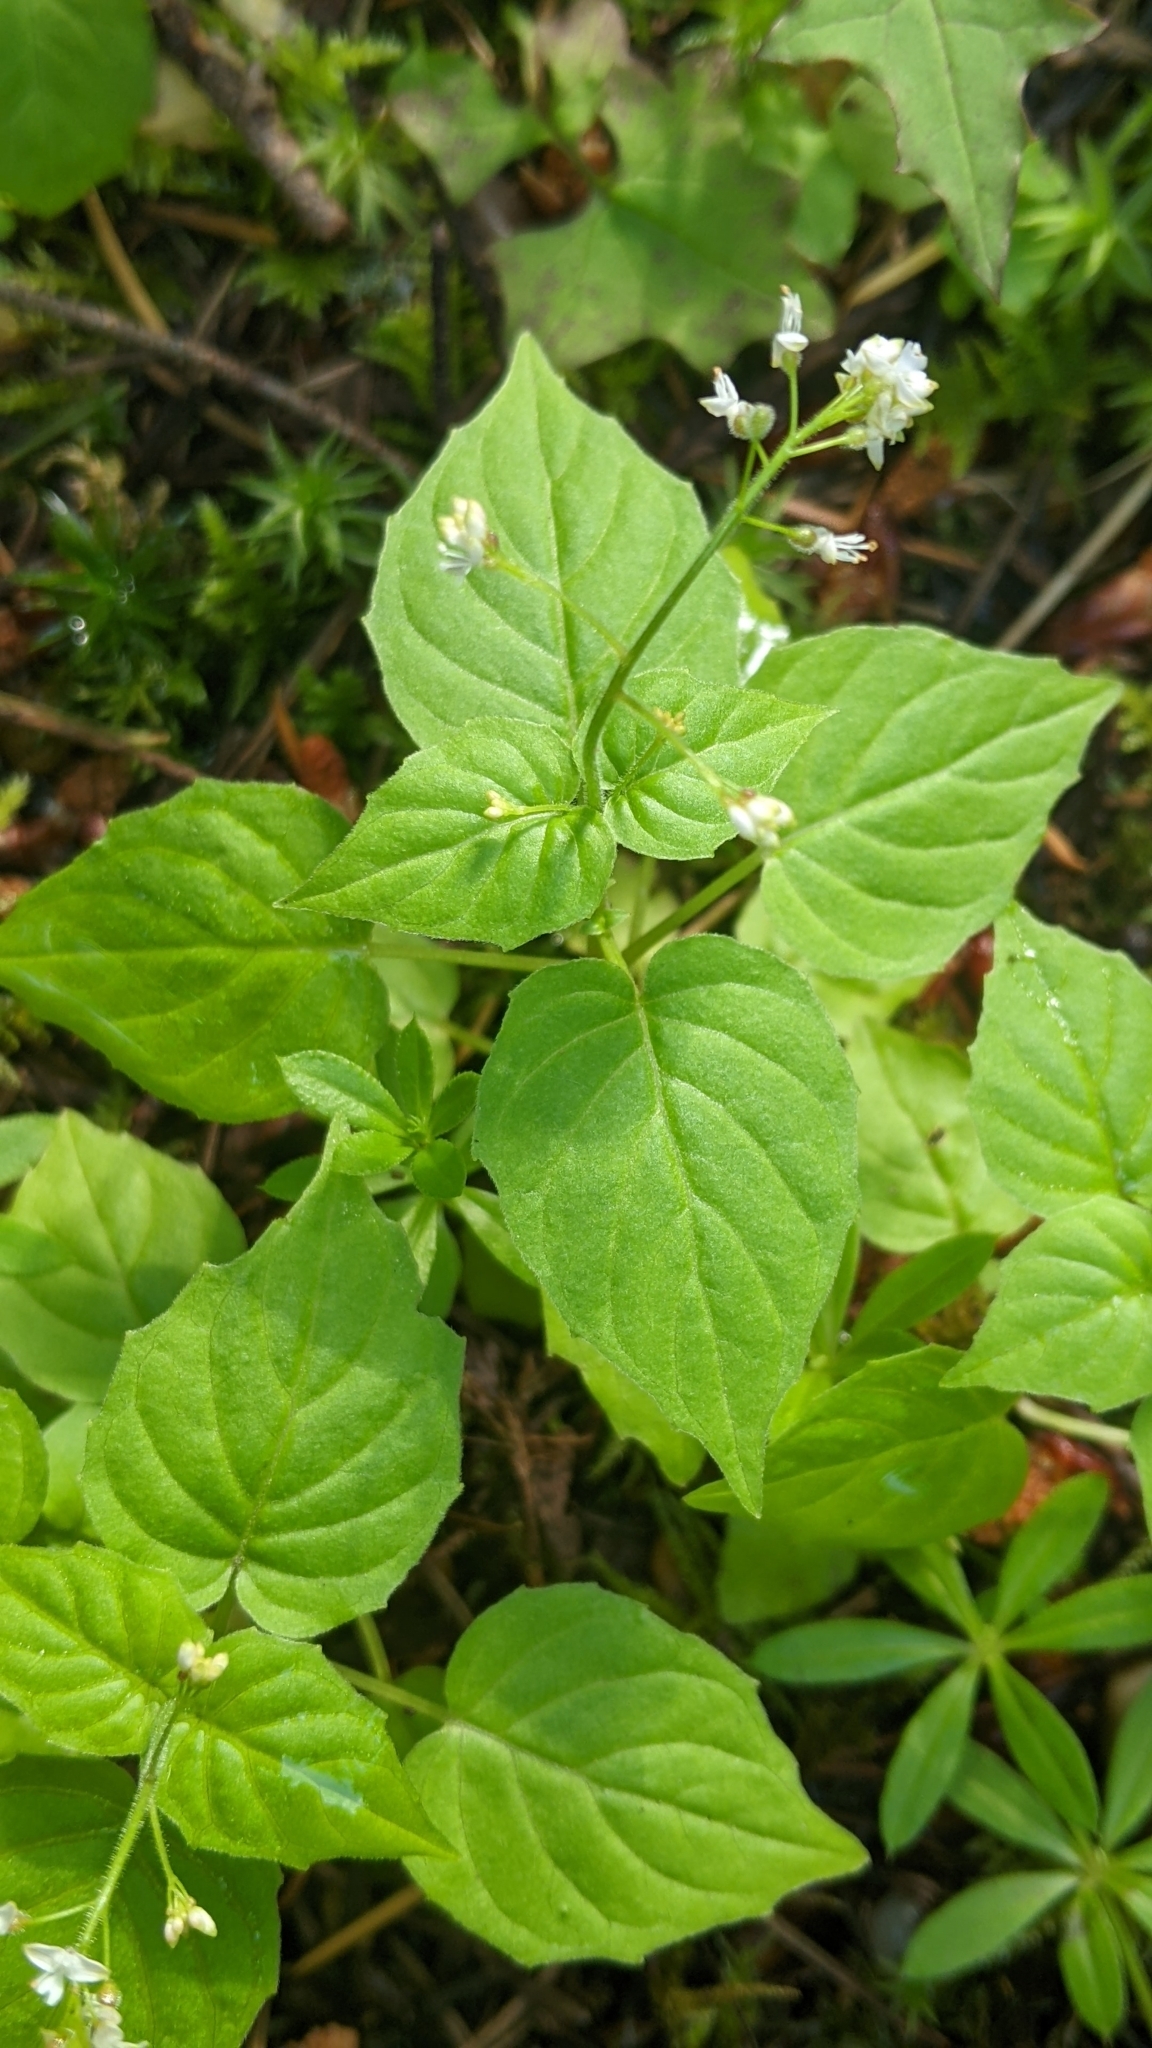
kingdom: Plantae
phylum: Tracheophyta
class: Magnoliopsida
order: Myrtales
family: Onagraceae
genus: Circaea
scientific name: Circaea alpina
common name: Alpine enchanter's-nightshade
